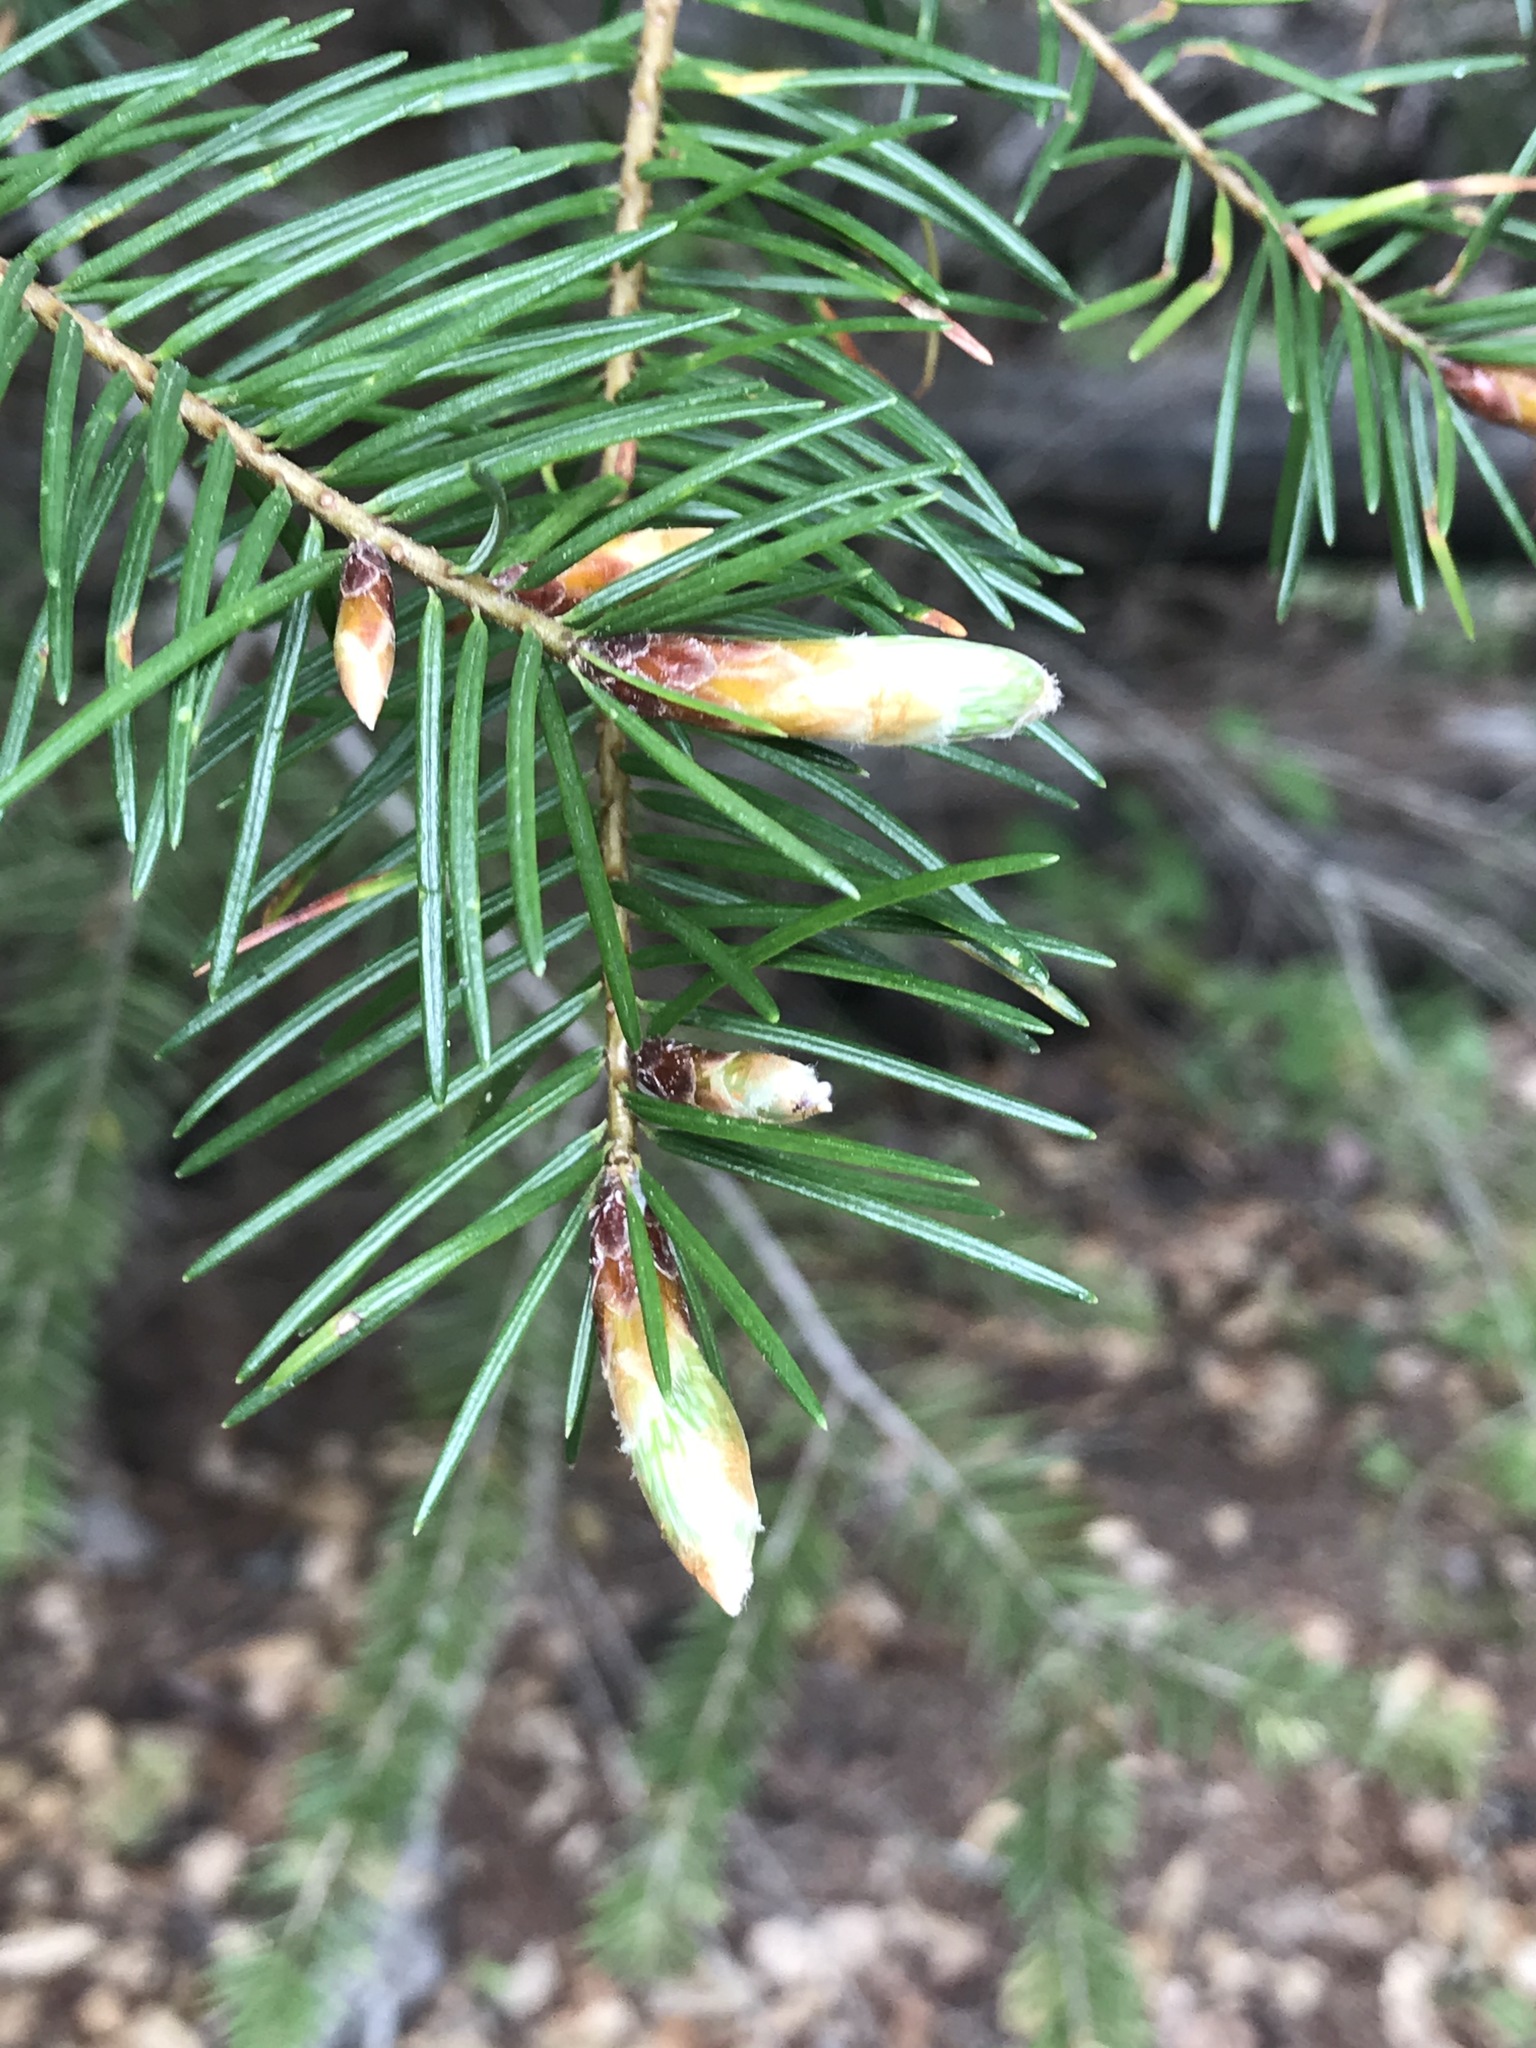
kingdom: Plantae
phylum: Tracheophyta
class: Pinopsida
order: Pinales
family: Pinaceae
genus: Pseudotsuga
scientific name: Pseudotsuga menziesii
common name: Douglas fir
